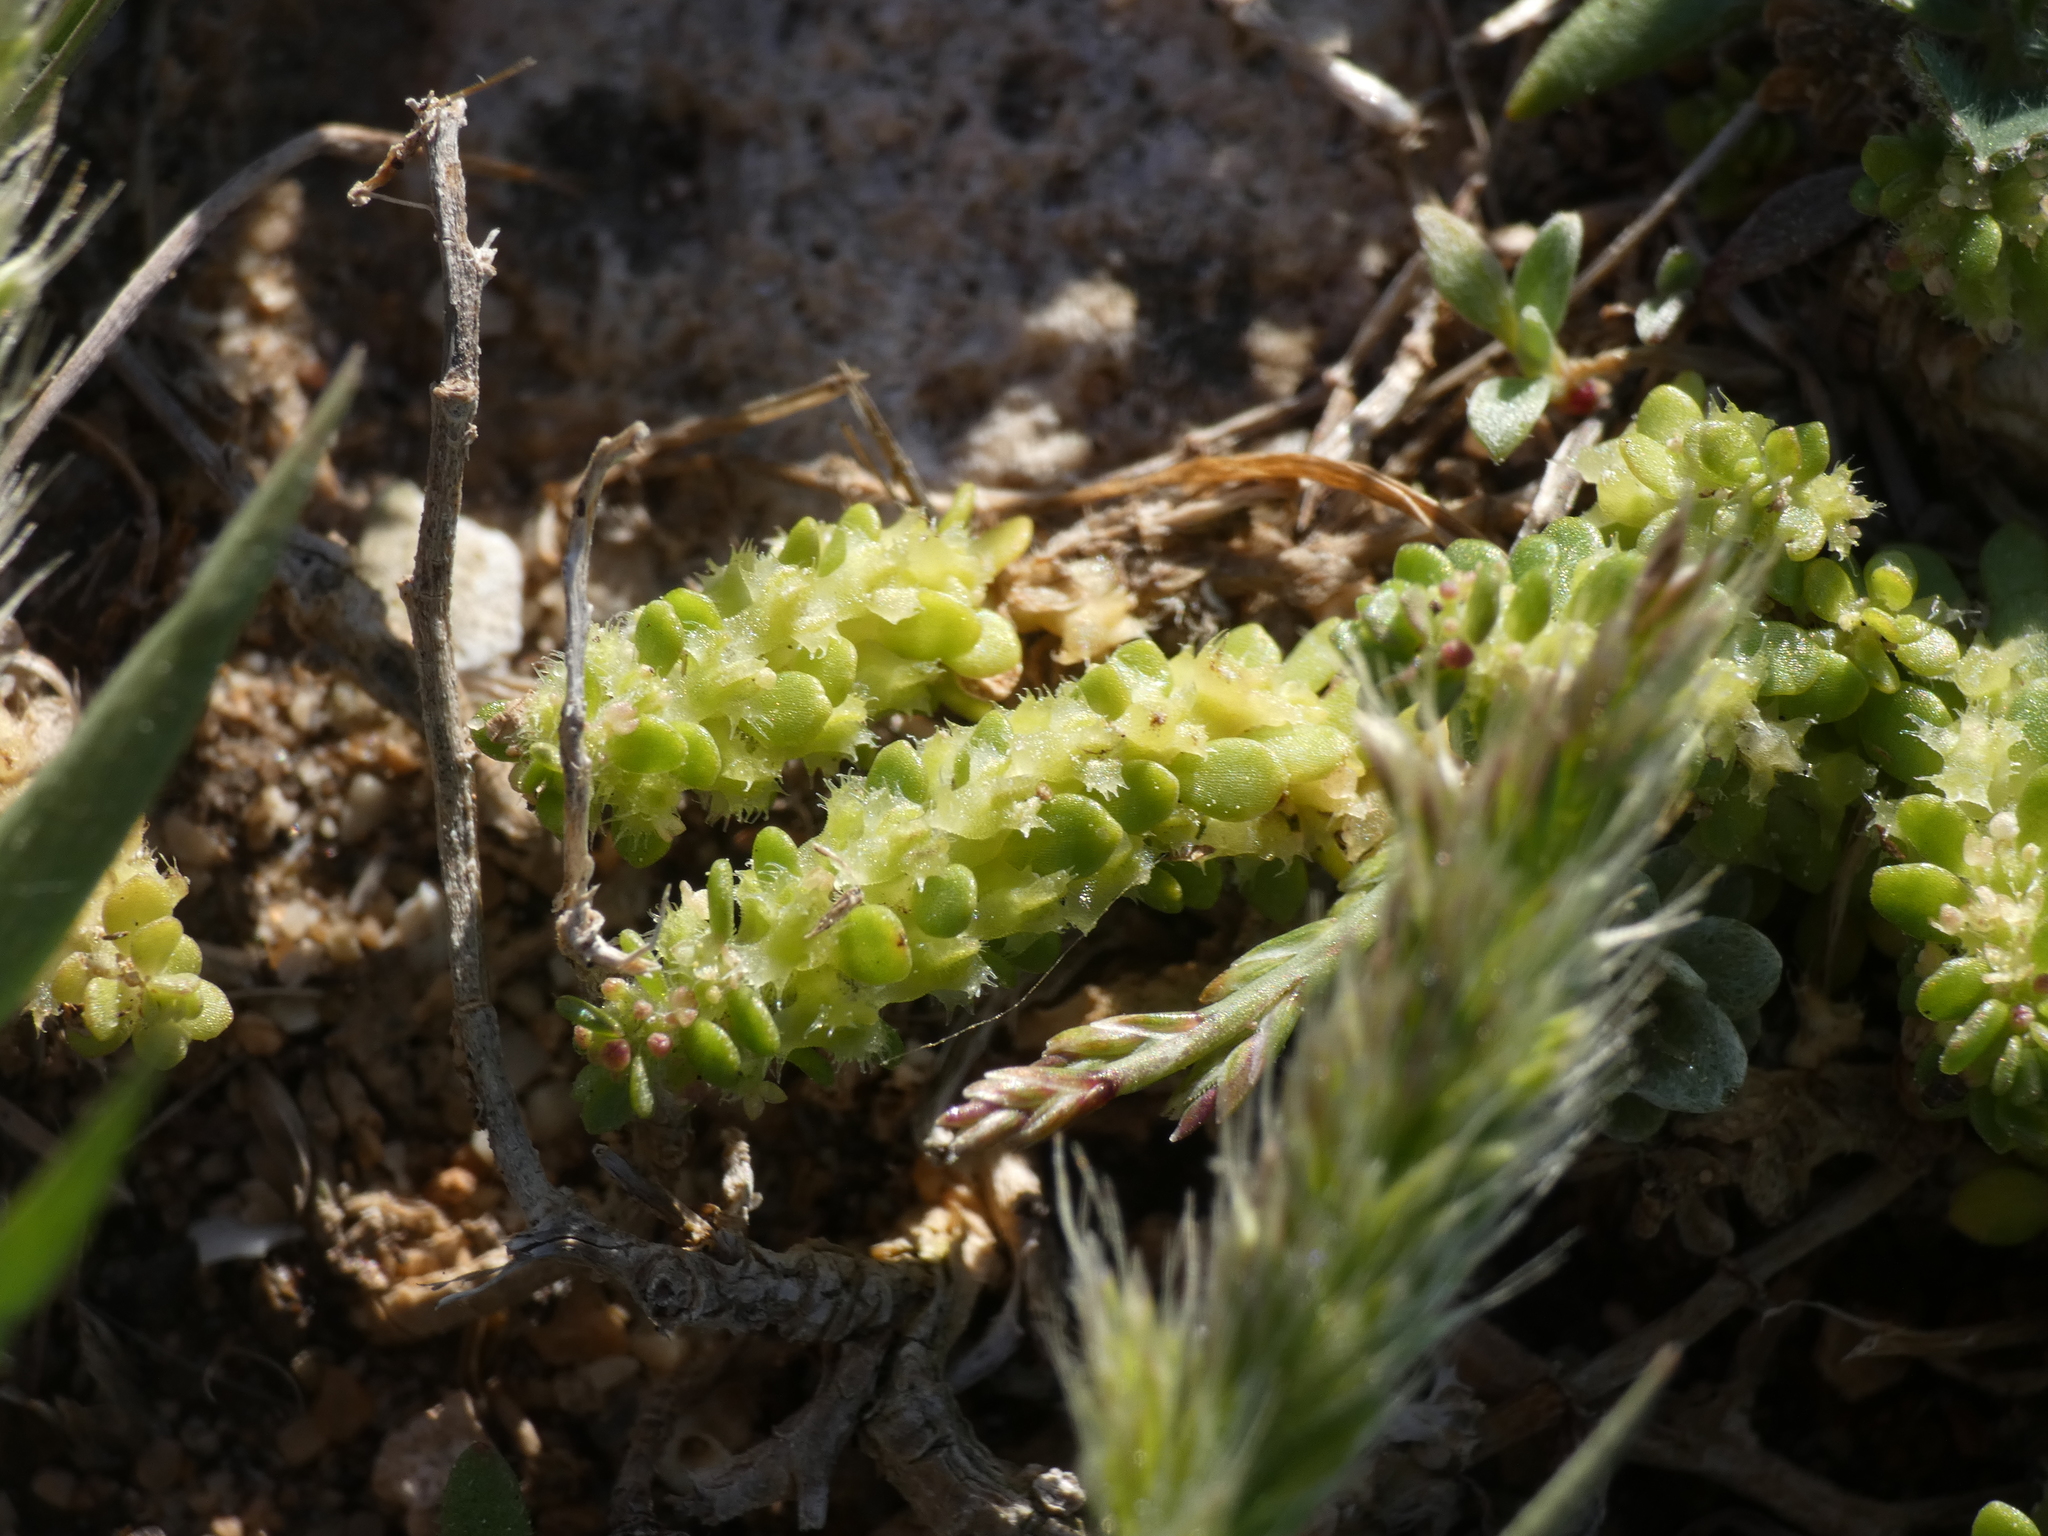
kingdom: Plantae
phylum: Tracheophyta
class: Magnoliopsida
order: Gentianales
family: Rubiaceae
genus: Valantia
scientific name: Valantia muralis
